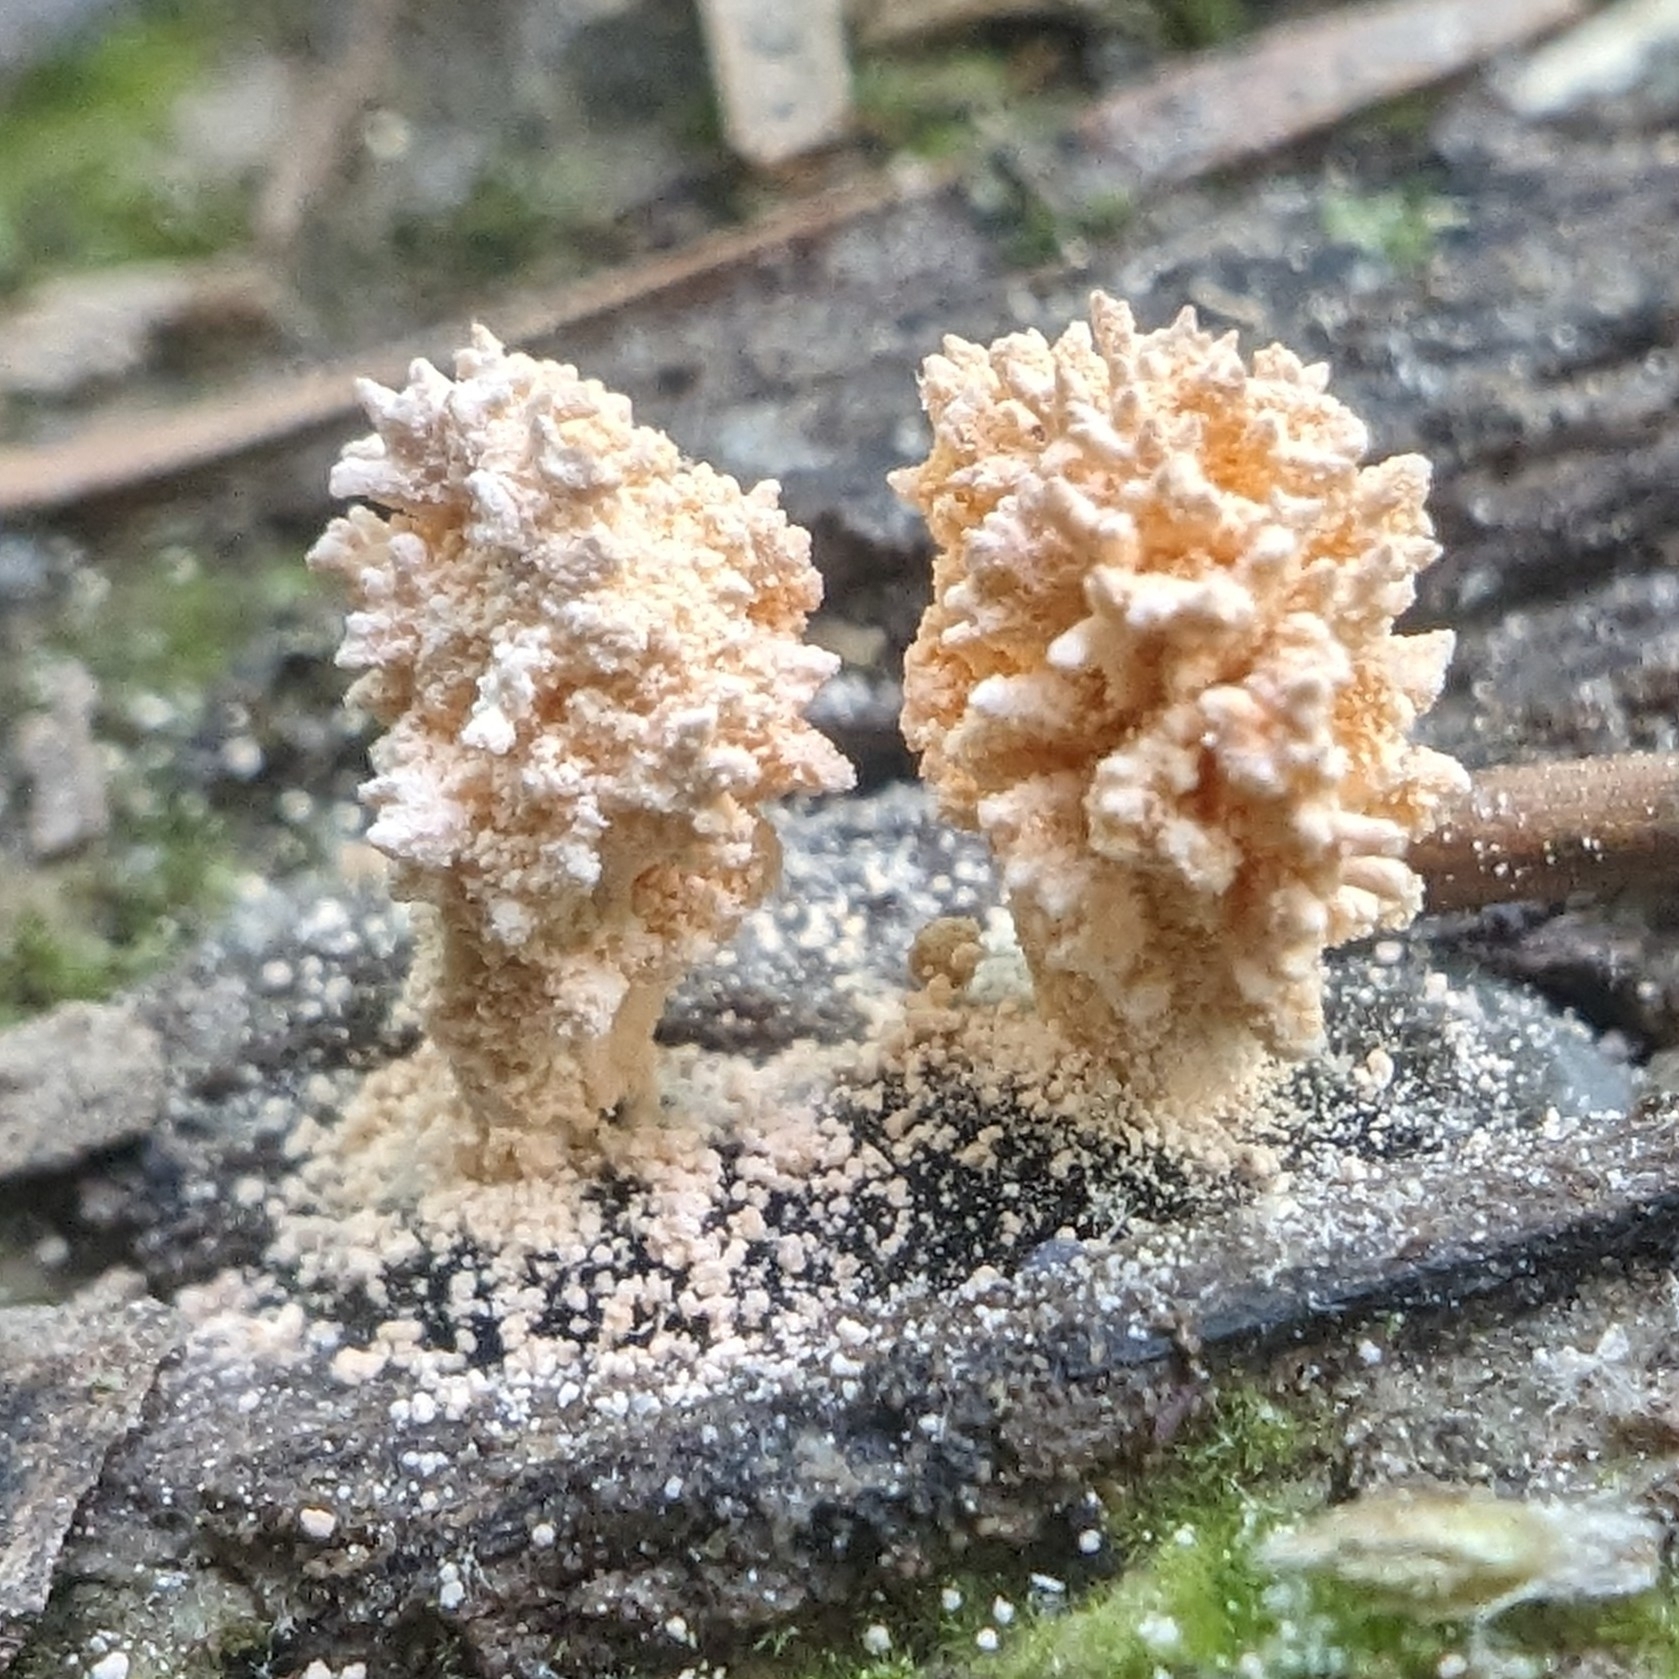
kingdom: Fungi
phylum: Ascomycota
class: Sordariomycetes
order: Xylariales
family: Xylariaceae
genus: Xylaria
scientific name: Xylaria cubensis
